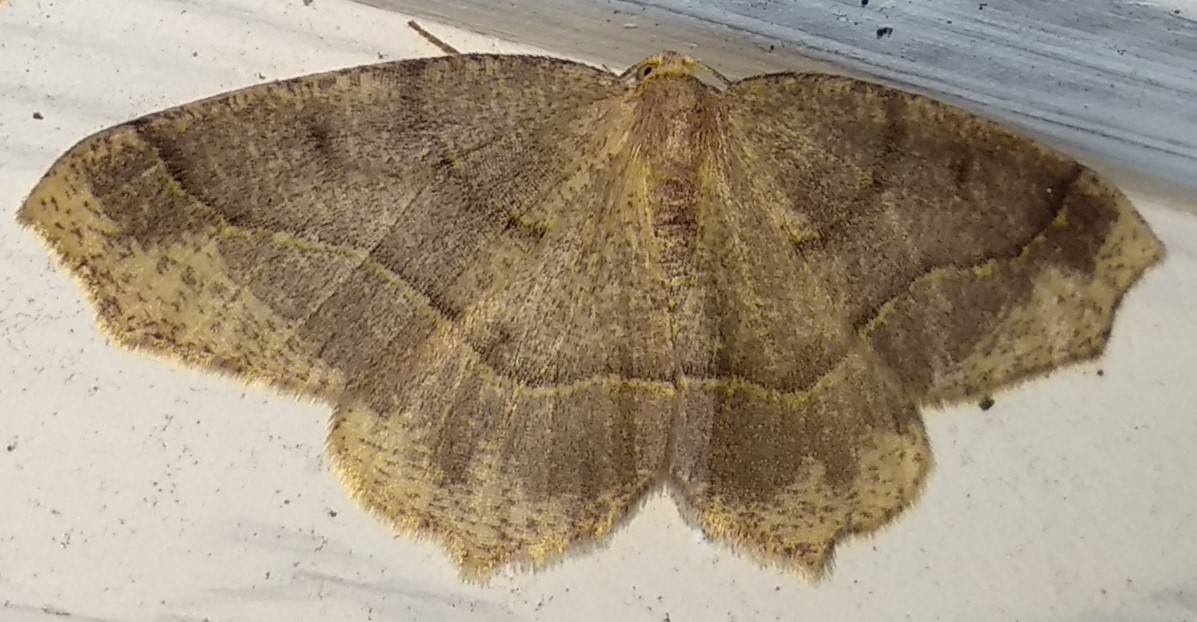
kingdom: Animalia
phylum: Arthropoda
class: Insecta
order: Lepidoptera
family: Geometridae
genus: Lambdina
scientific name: Lambdina fiscellaria
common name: Hemlock looper
